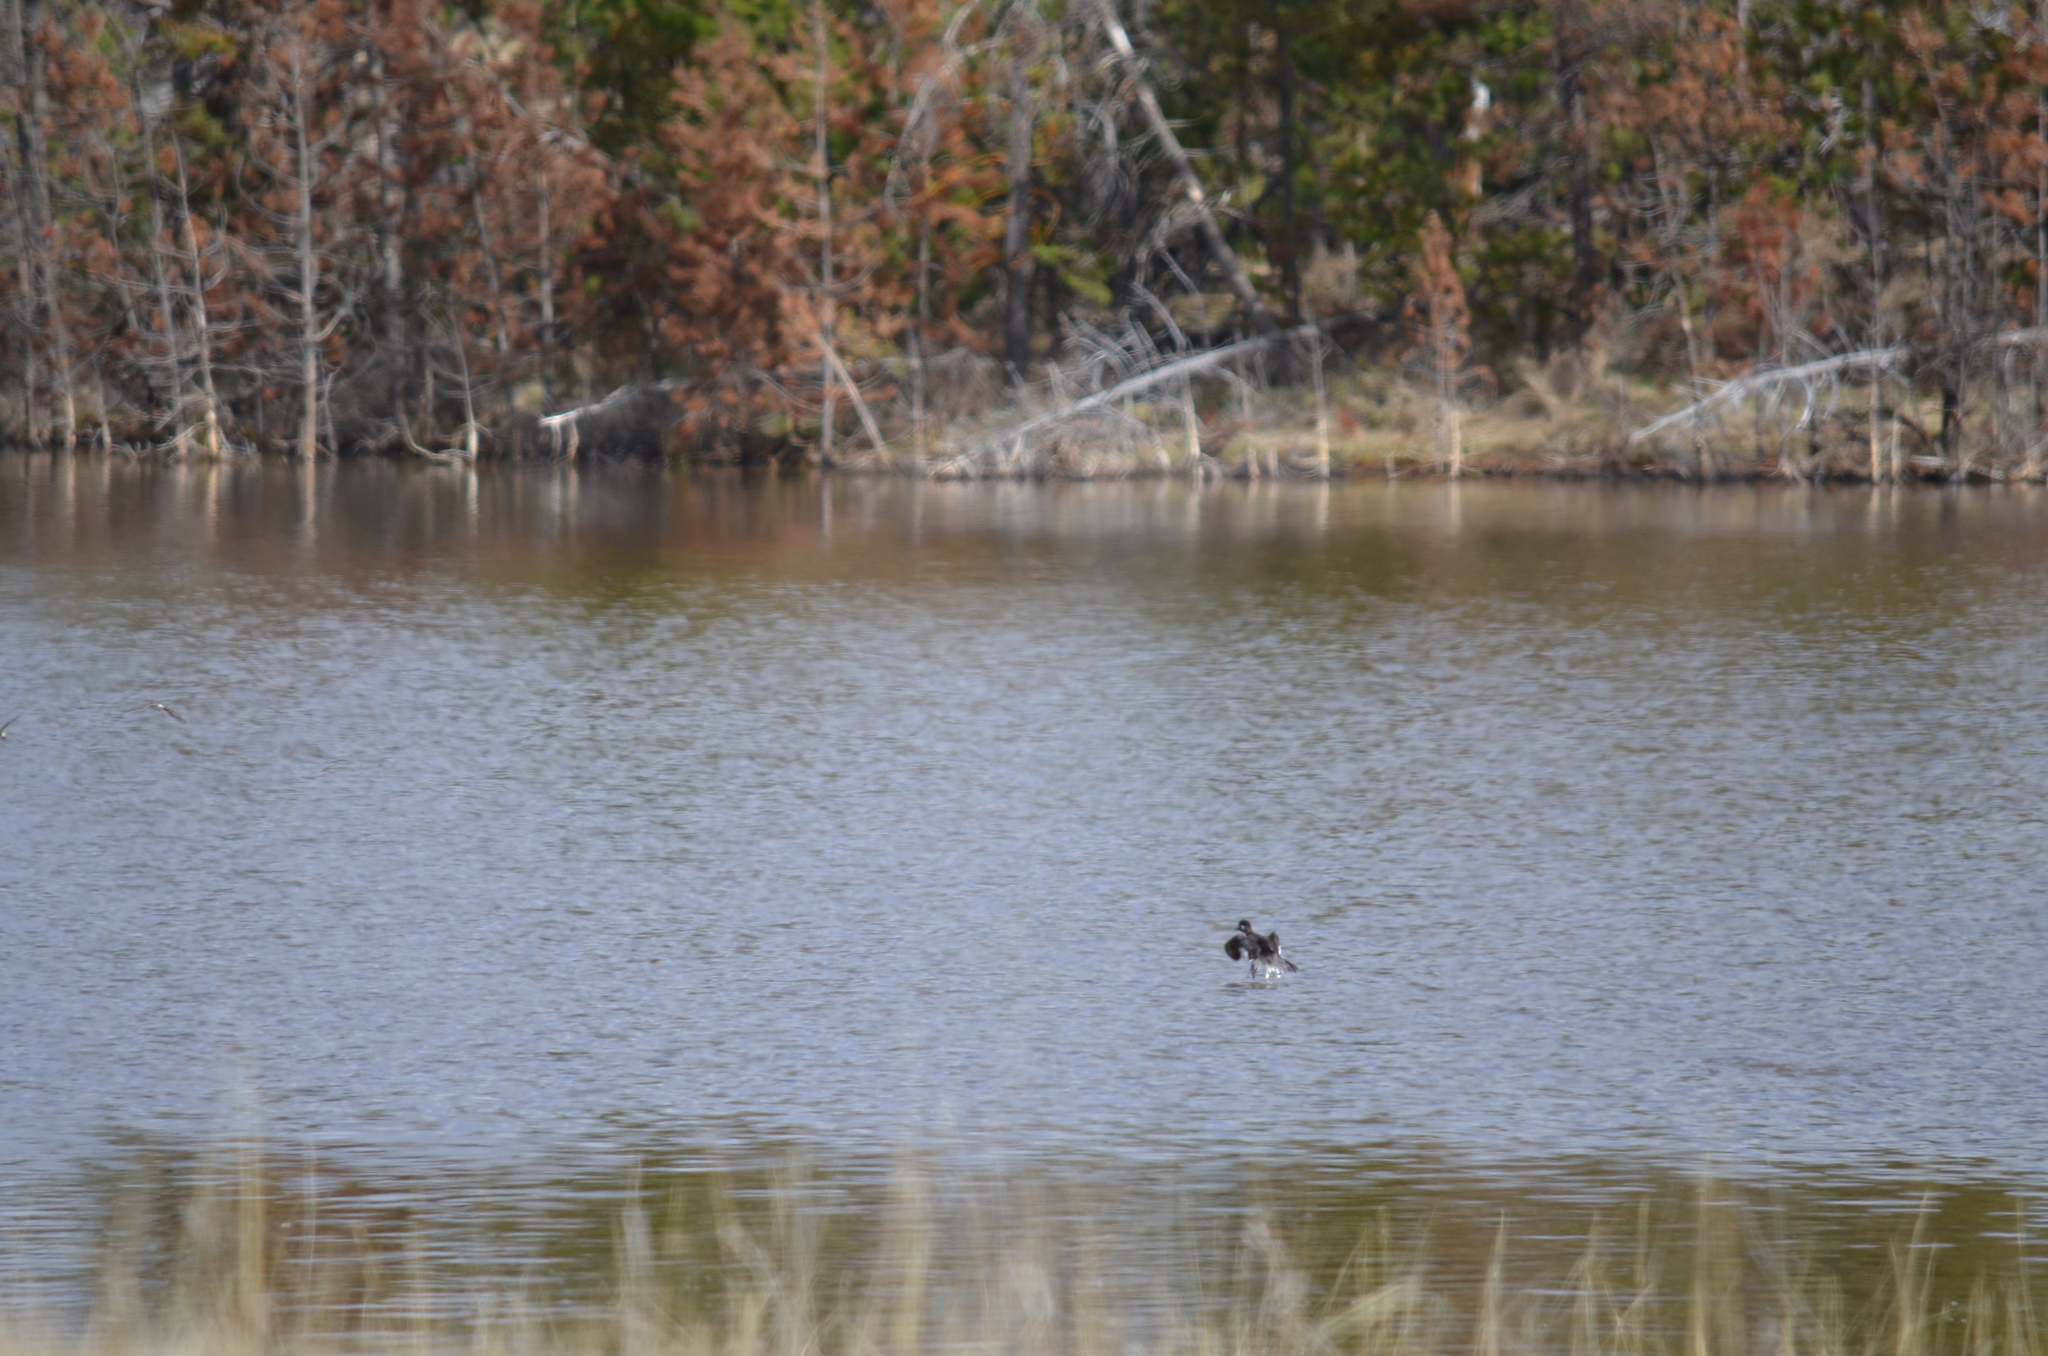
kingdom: Animalia
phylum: Chordata
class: Aves
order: Anseriformes
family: Anatidae
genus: Bucephala
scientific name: Bucephala albeola
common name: Bufflehead
